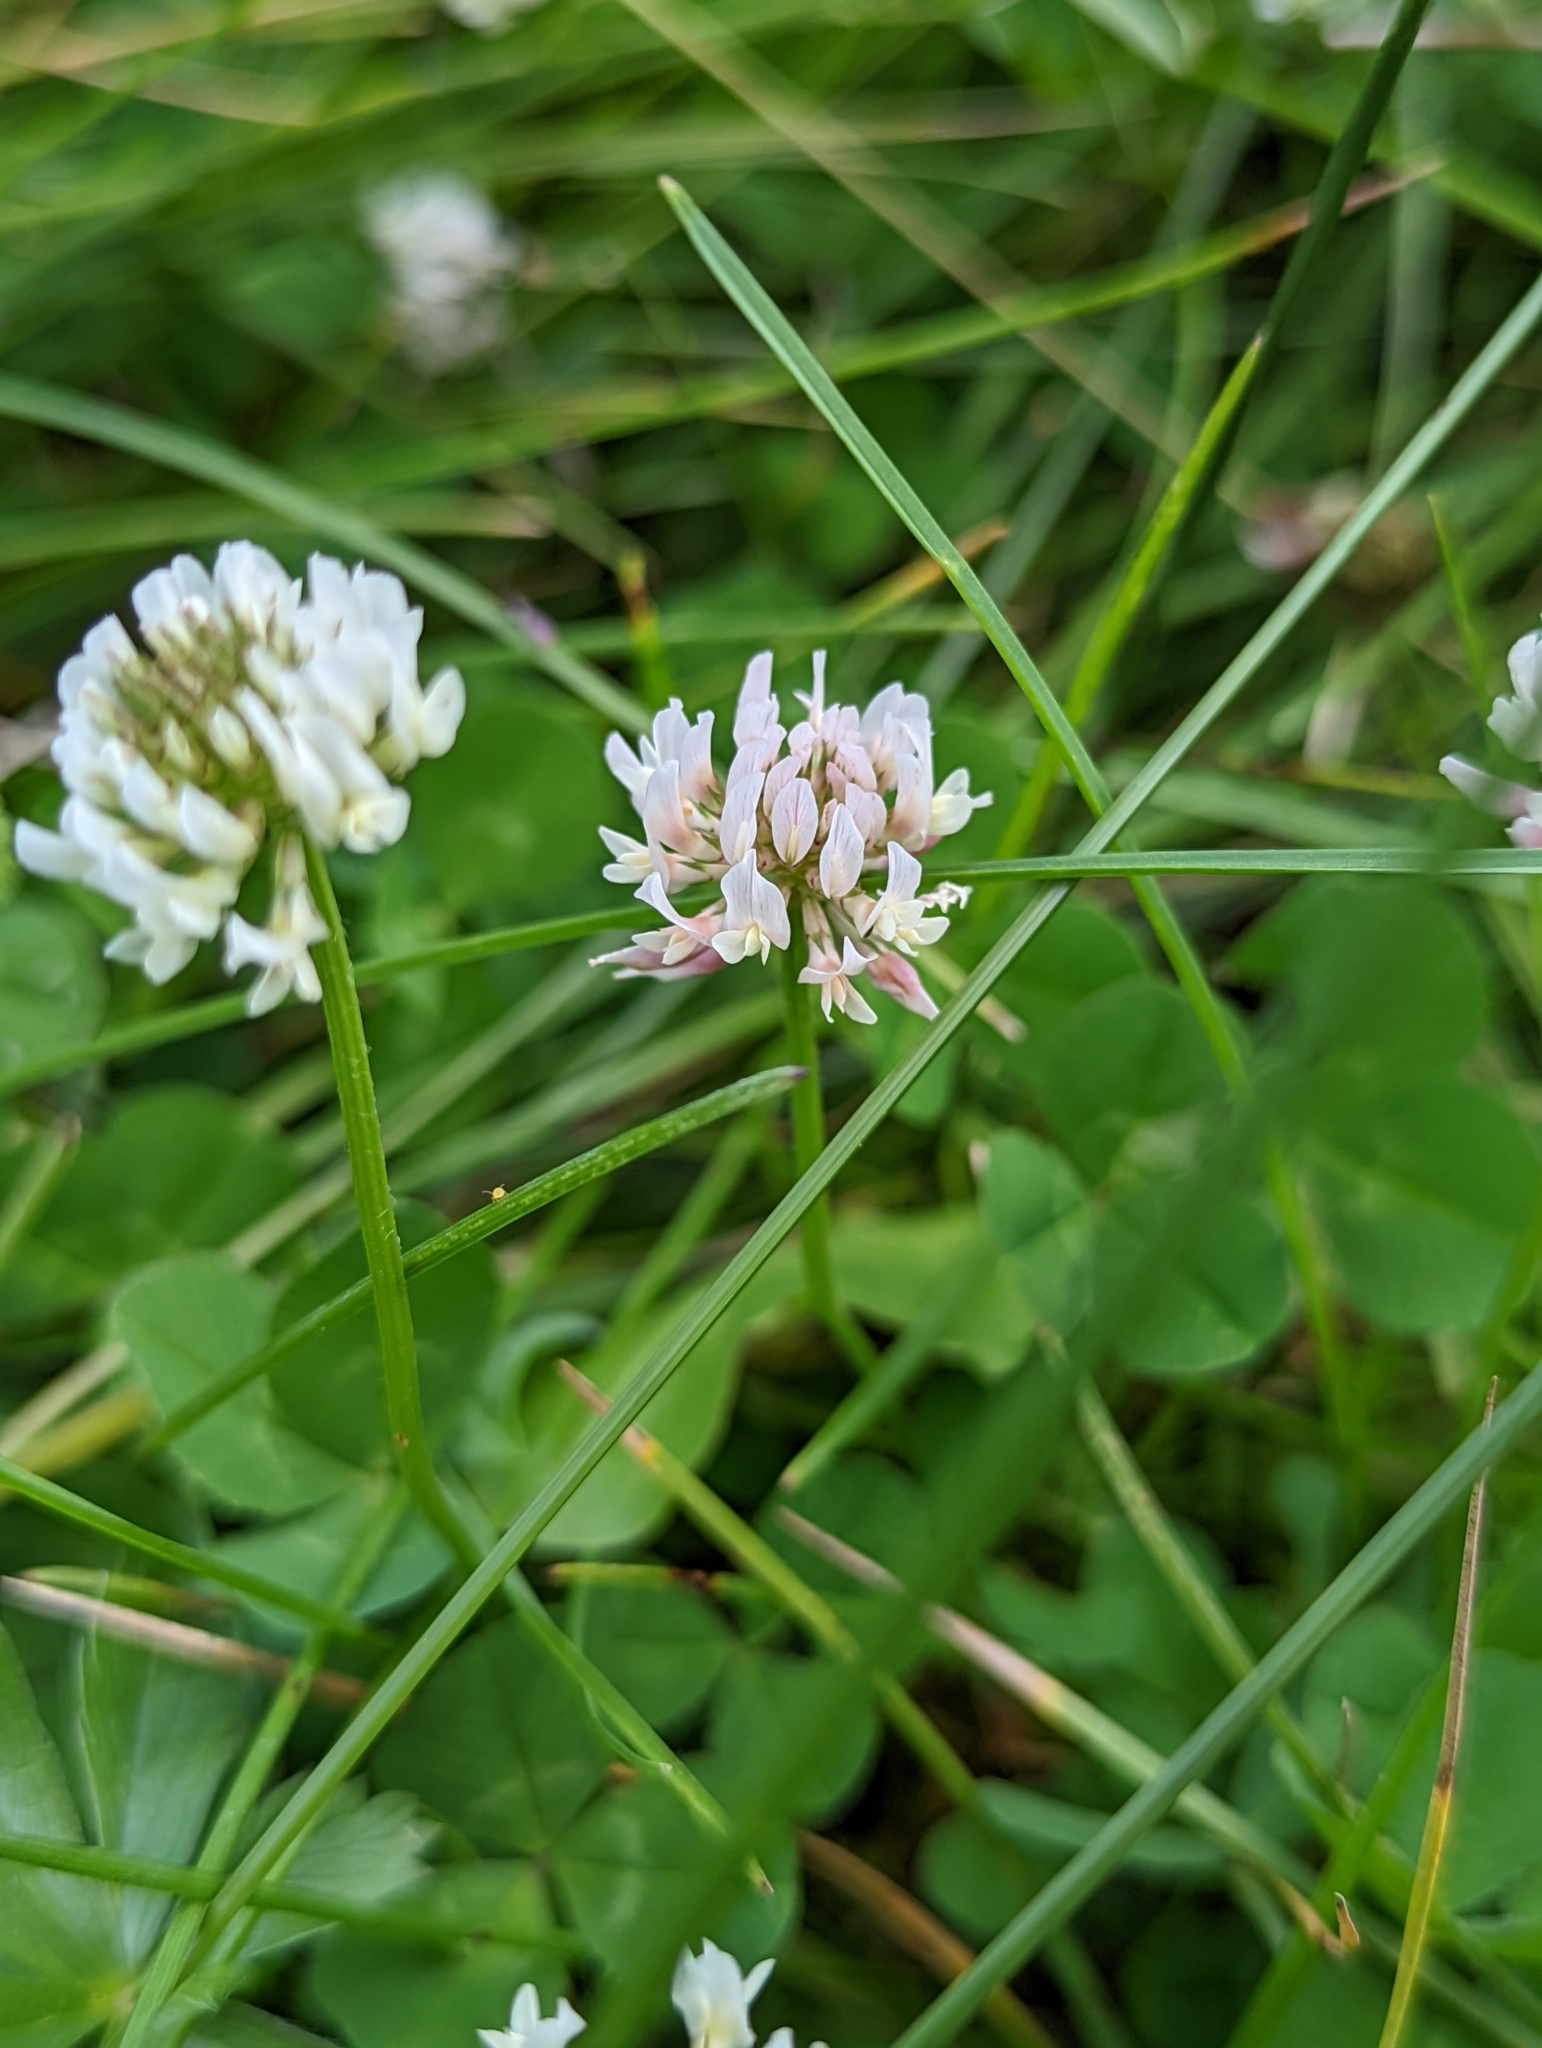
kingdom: Plantae
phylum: Tracheophyta
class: Magnoliopsida
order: Fabales
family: Fabaceae
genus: Trifolium
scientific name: Trifolium repens
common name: White clover
